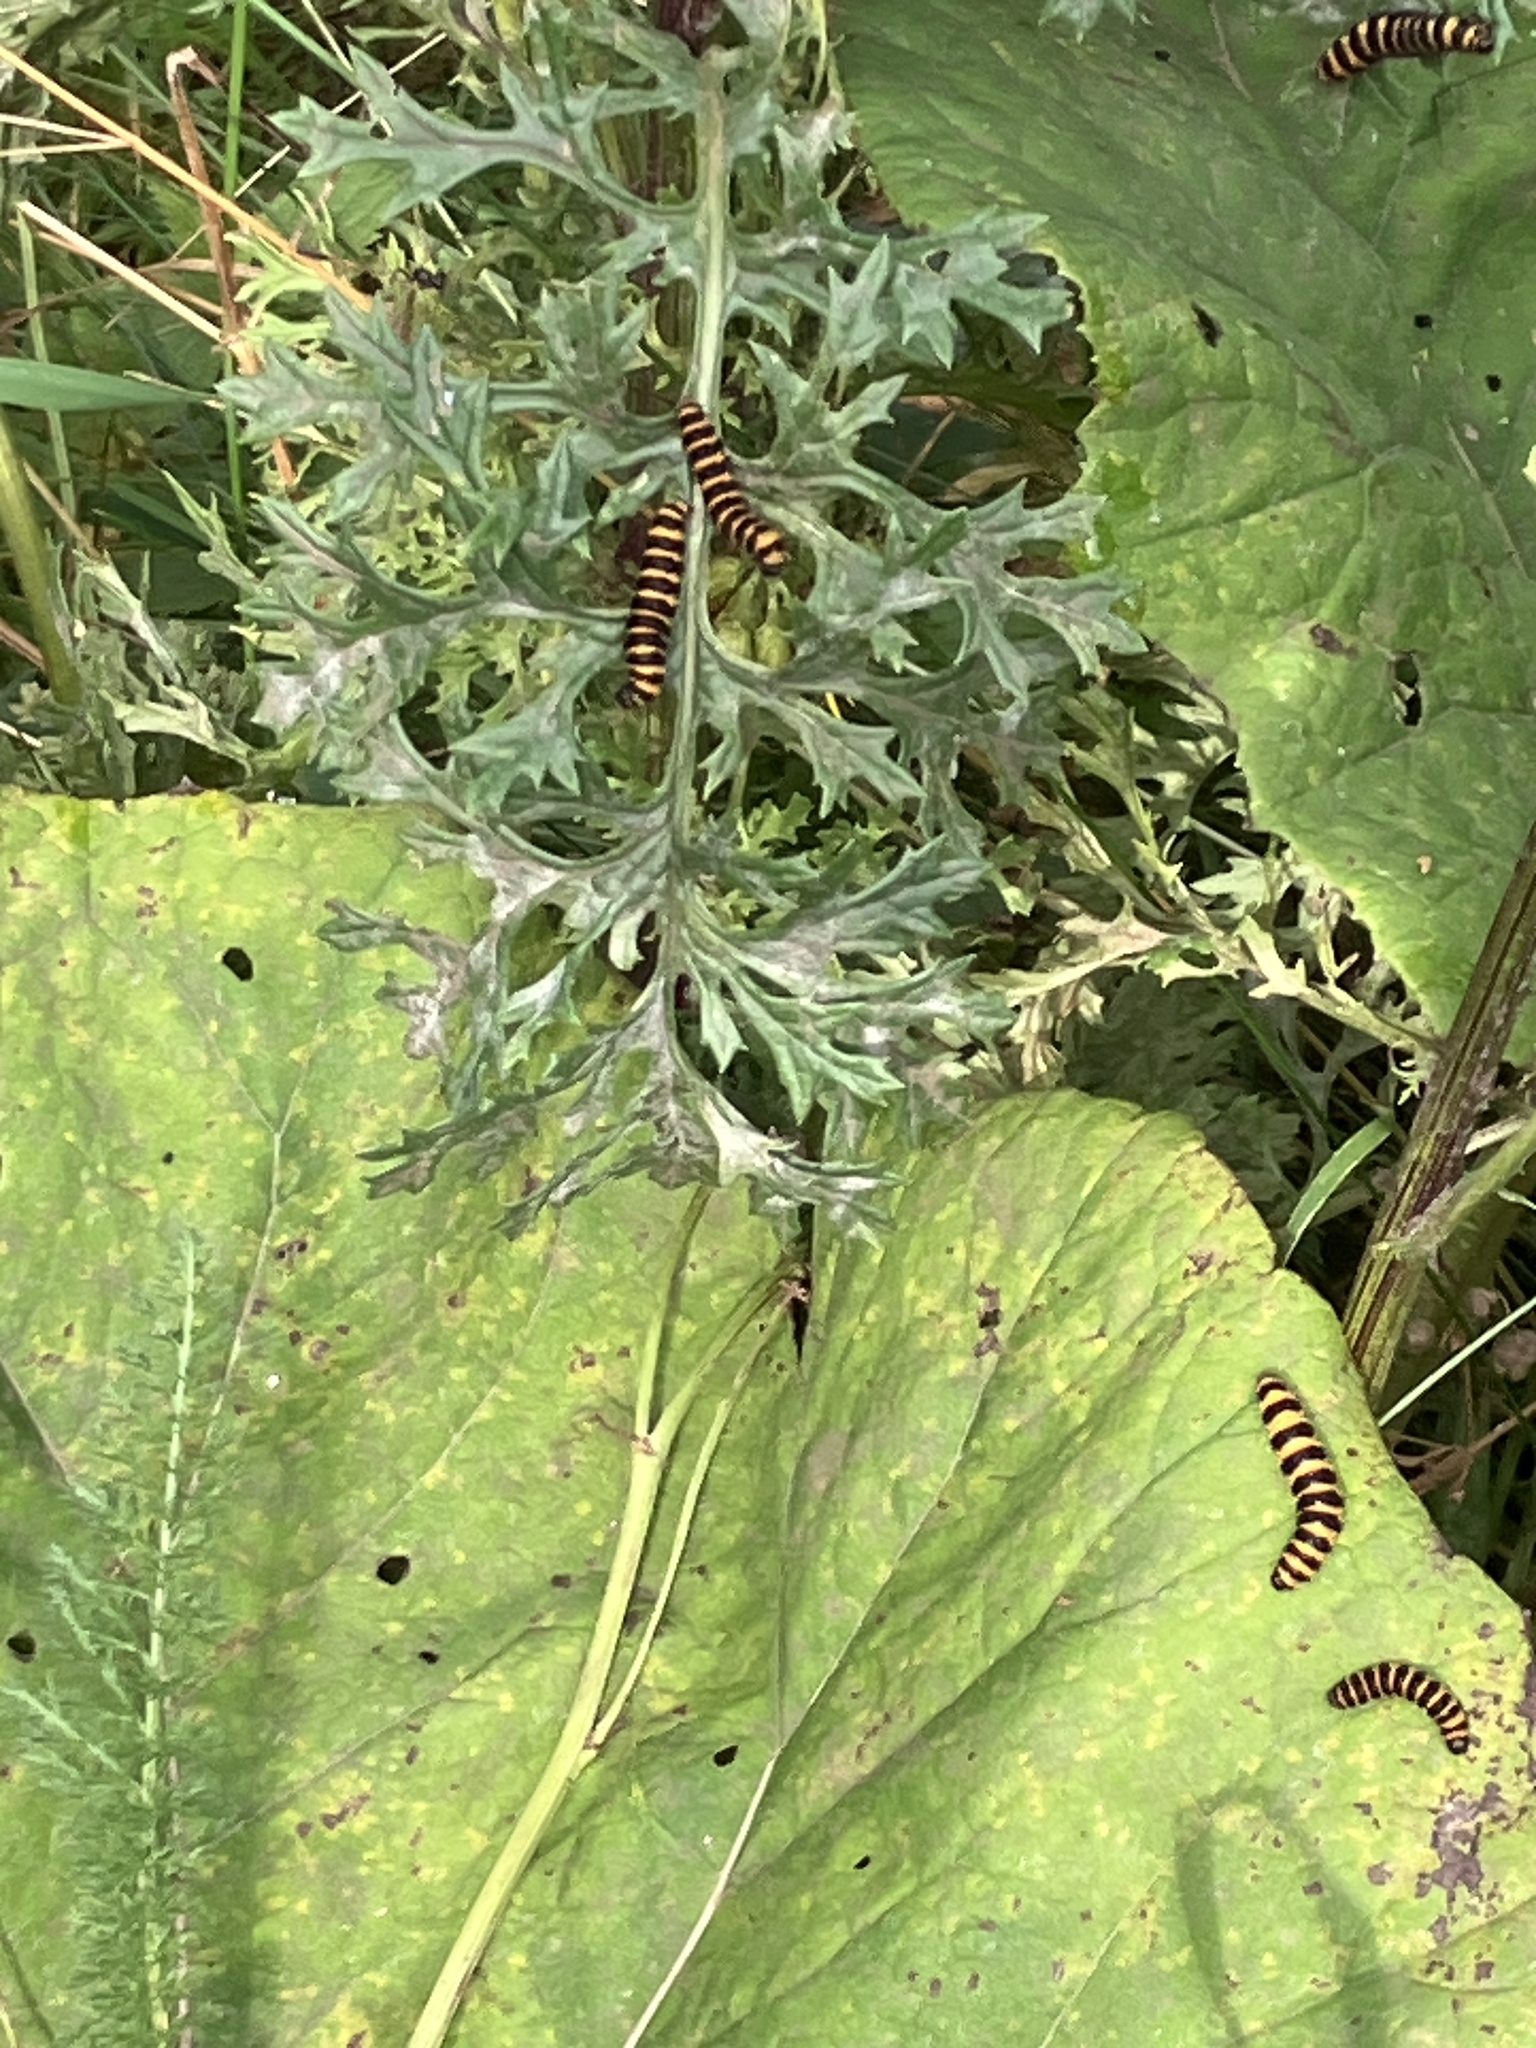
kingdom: Animalia
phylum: Arthropoda
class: Insecta
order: Lepidoptera
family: Erebidae
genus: Tyria
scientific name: Tyria jacobaeae
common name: Cinnabar
